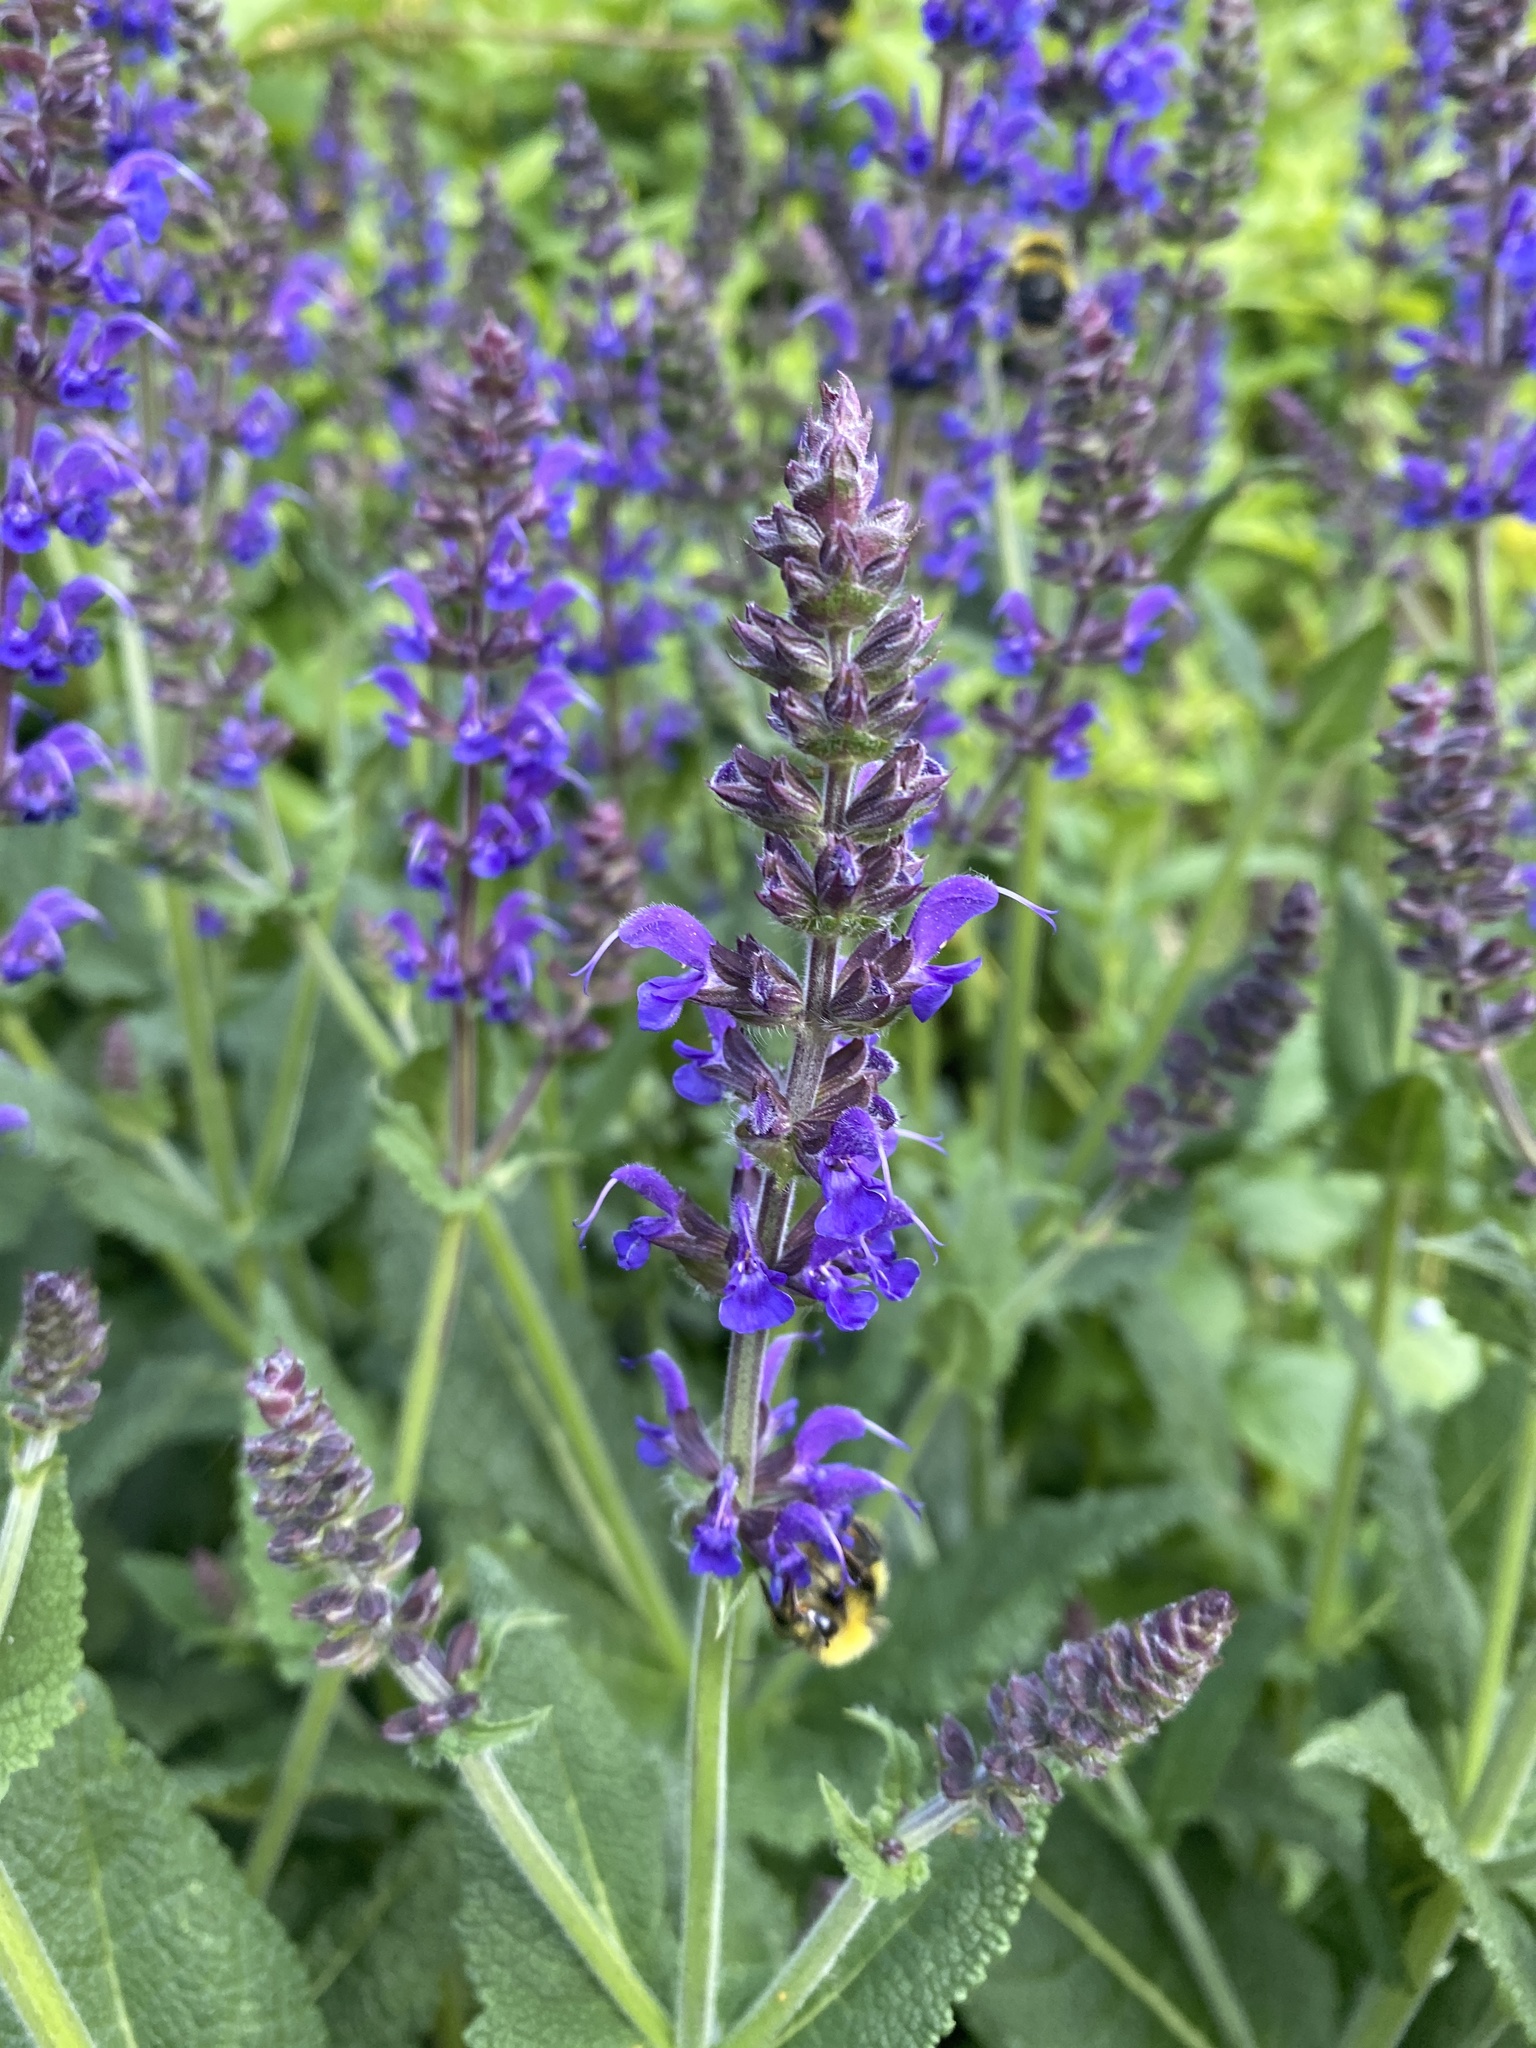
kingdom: Animalia
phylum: Arthropoda
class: Insecta
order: Hymenoptera
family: Apidae
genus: Bombus
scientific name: Bombus pratorum
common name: Early humble-bee
